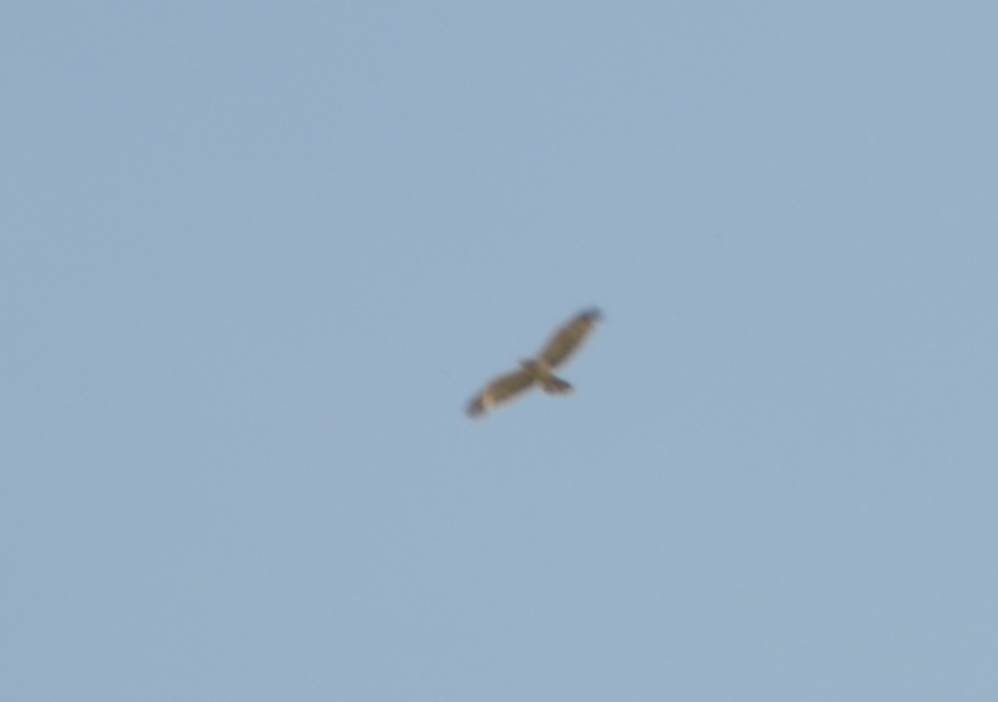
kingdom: Animalia
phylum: Chordata
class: Aves
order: Accipitriformes
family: Accipitridae
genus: Circaetus
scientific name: Circaetus gallicus
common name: Short-toed snake eagle
